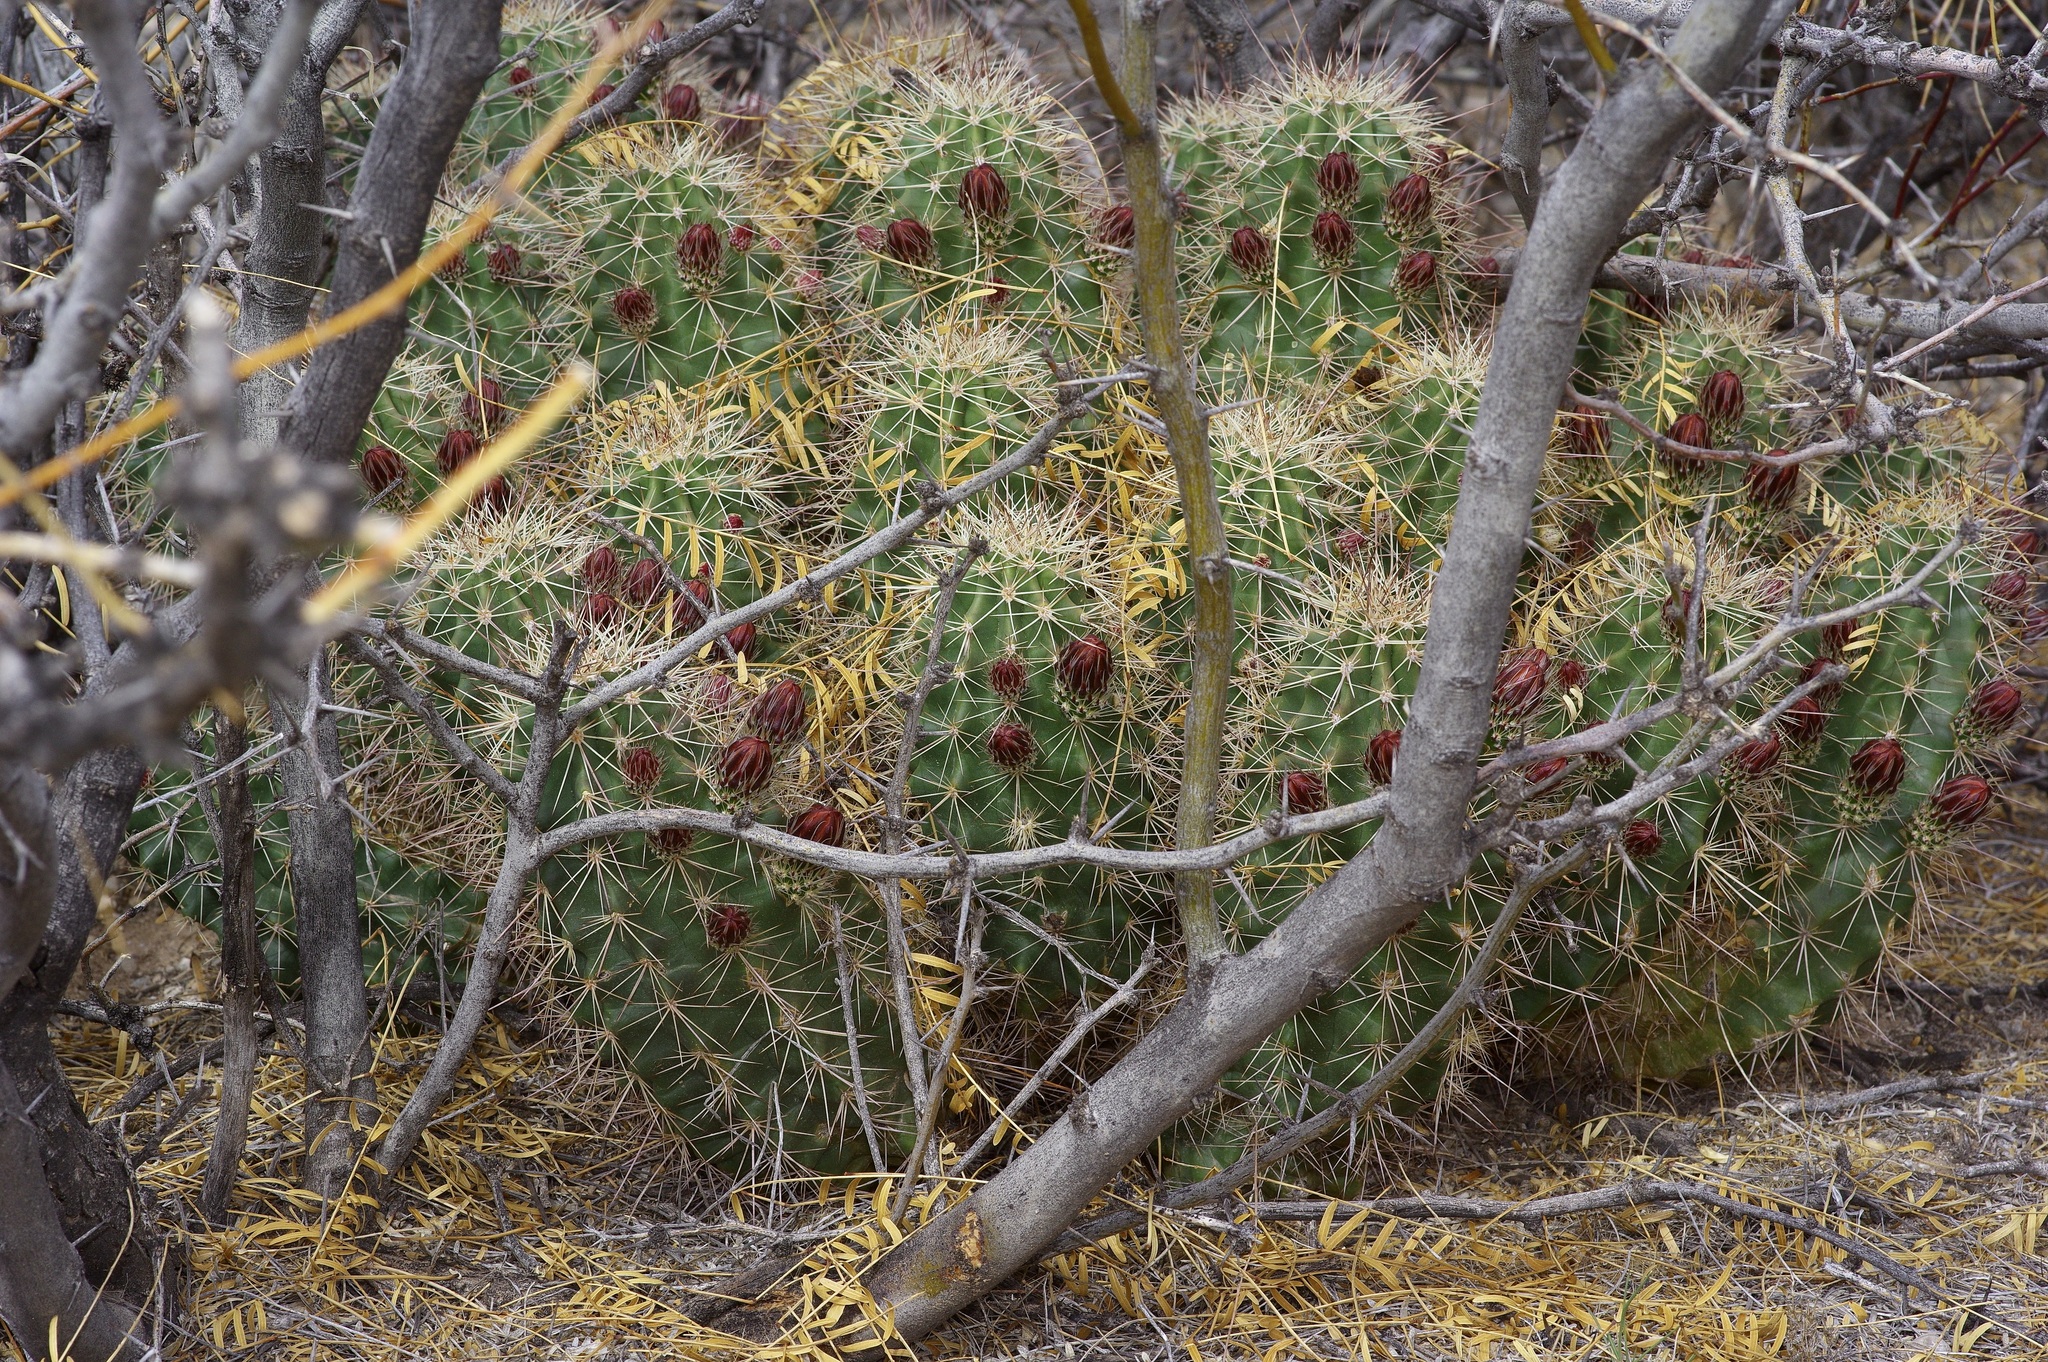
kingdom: Plantae
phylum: Tracheophyta
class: Magnoliopsida
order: Caryophyllales
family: Cactaceae
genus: Echinocereus
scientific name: Echinocereus coccineus
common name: Scarlet hedgehog cactus
